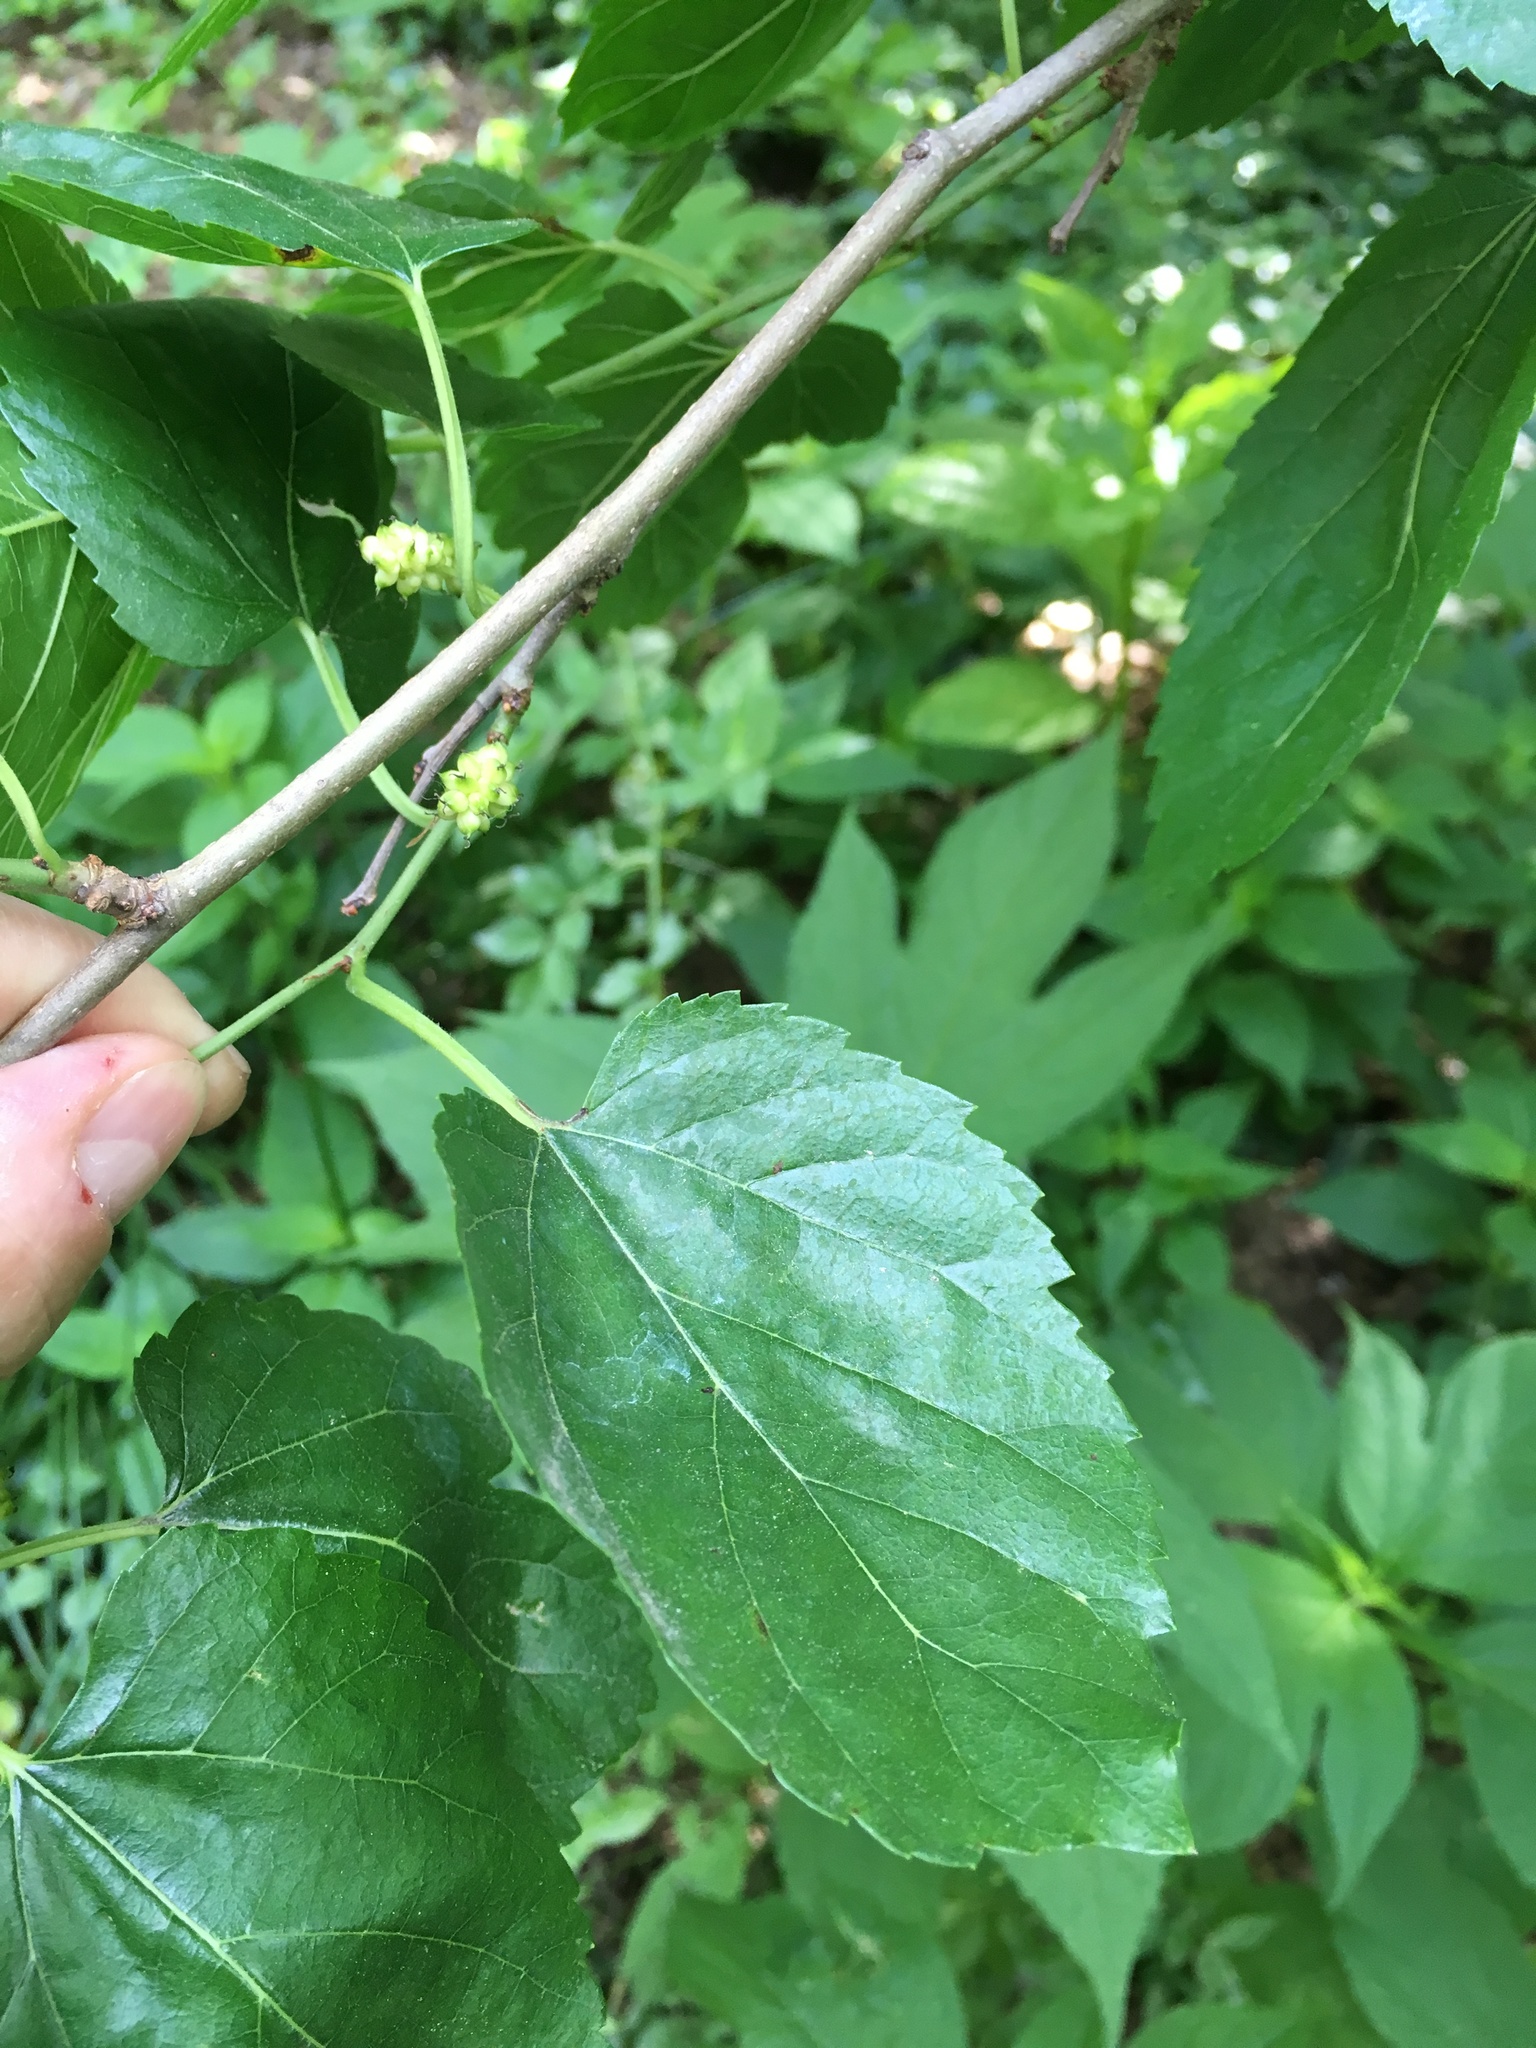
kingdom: Plantae
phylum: Tracheophyta
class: Magnoliopsida
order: Rosales
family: Moraceae
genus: Morus
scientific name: Morus alba
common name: White mulberry
